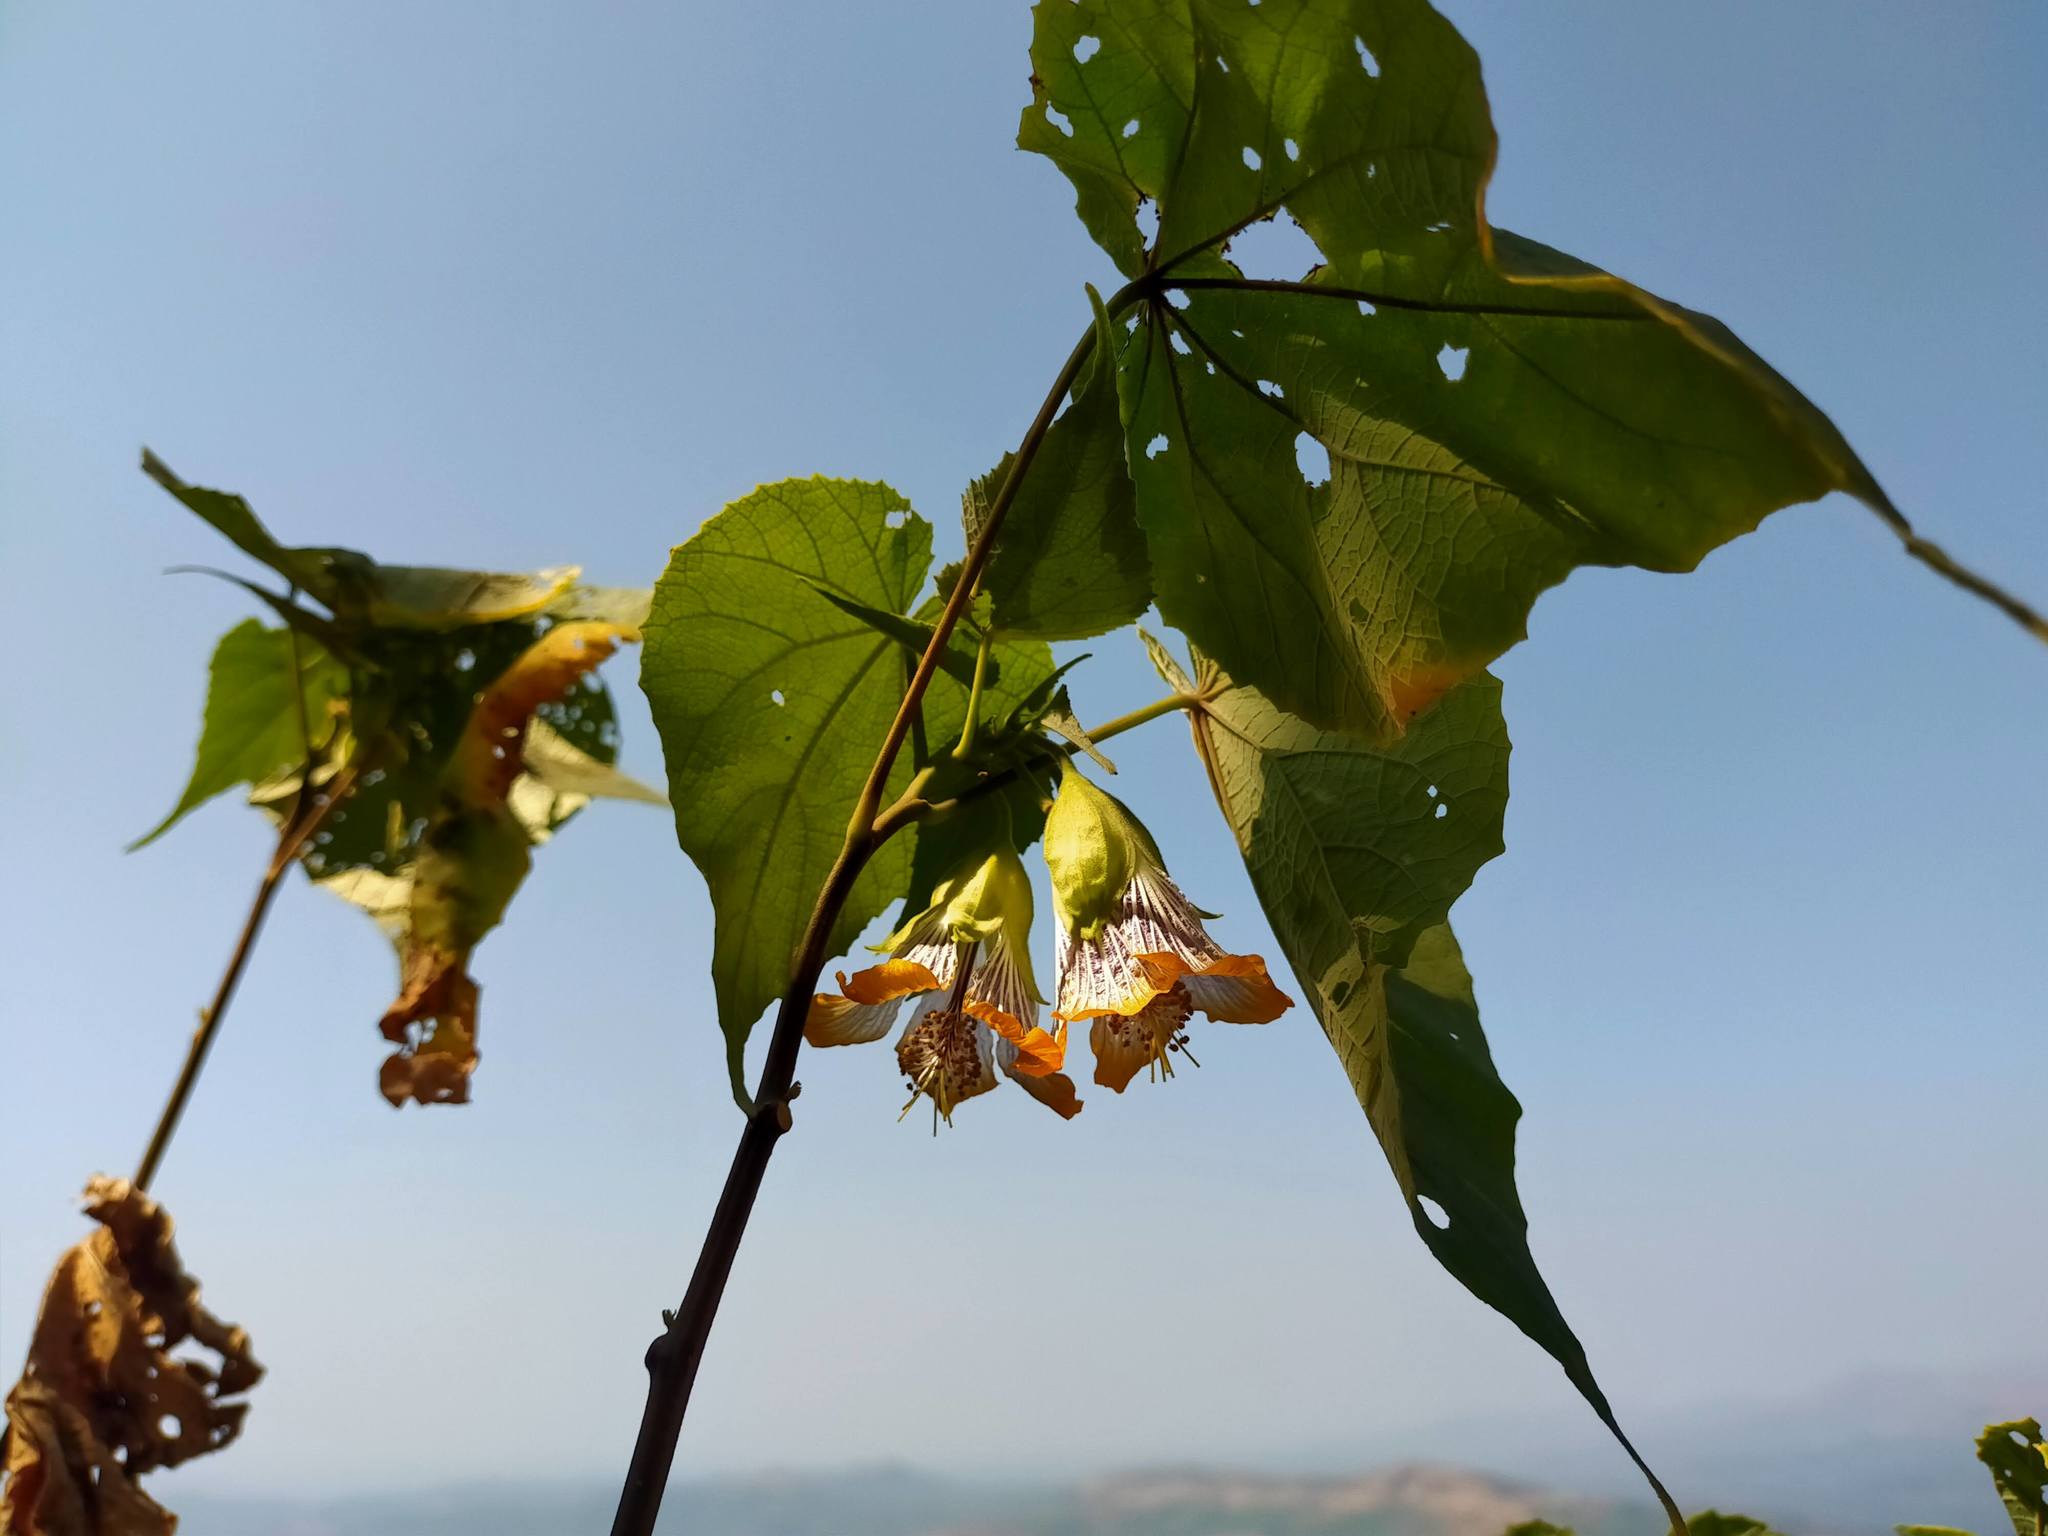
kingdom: Plantae
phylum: Tracheophyta
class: Magnoliopsida
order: Malvales
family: Malvaceae
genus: Abutilon
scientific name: Abutilon ranadei
